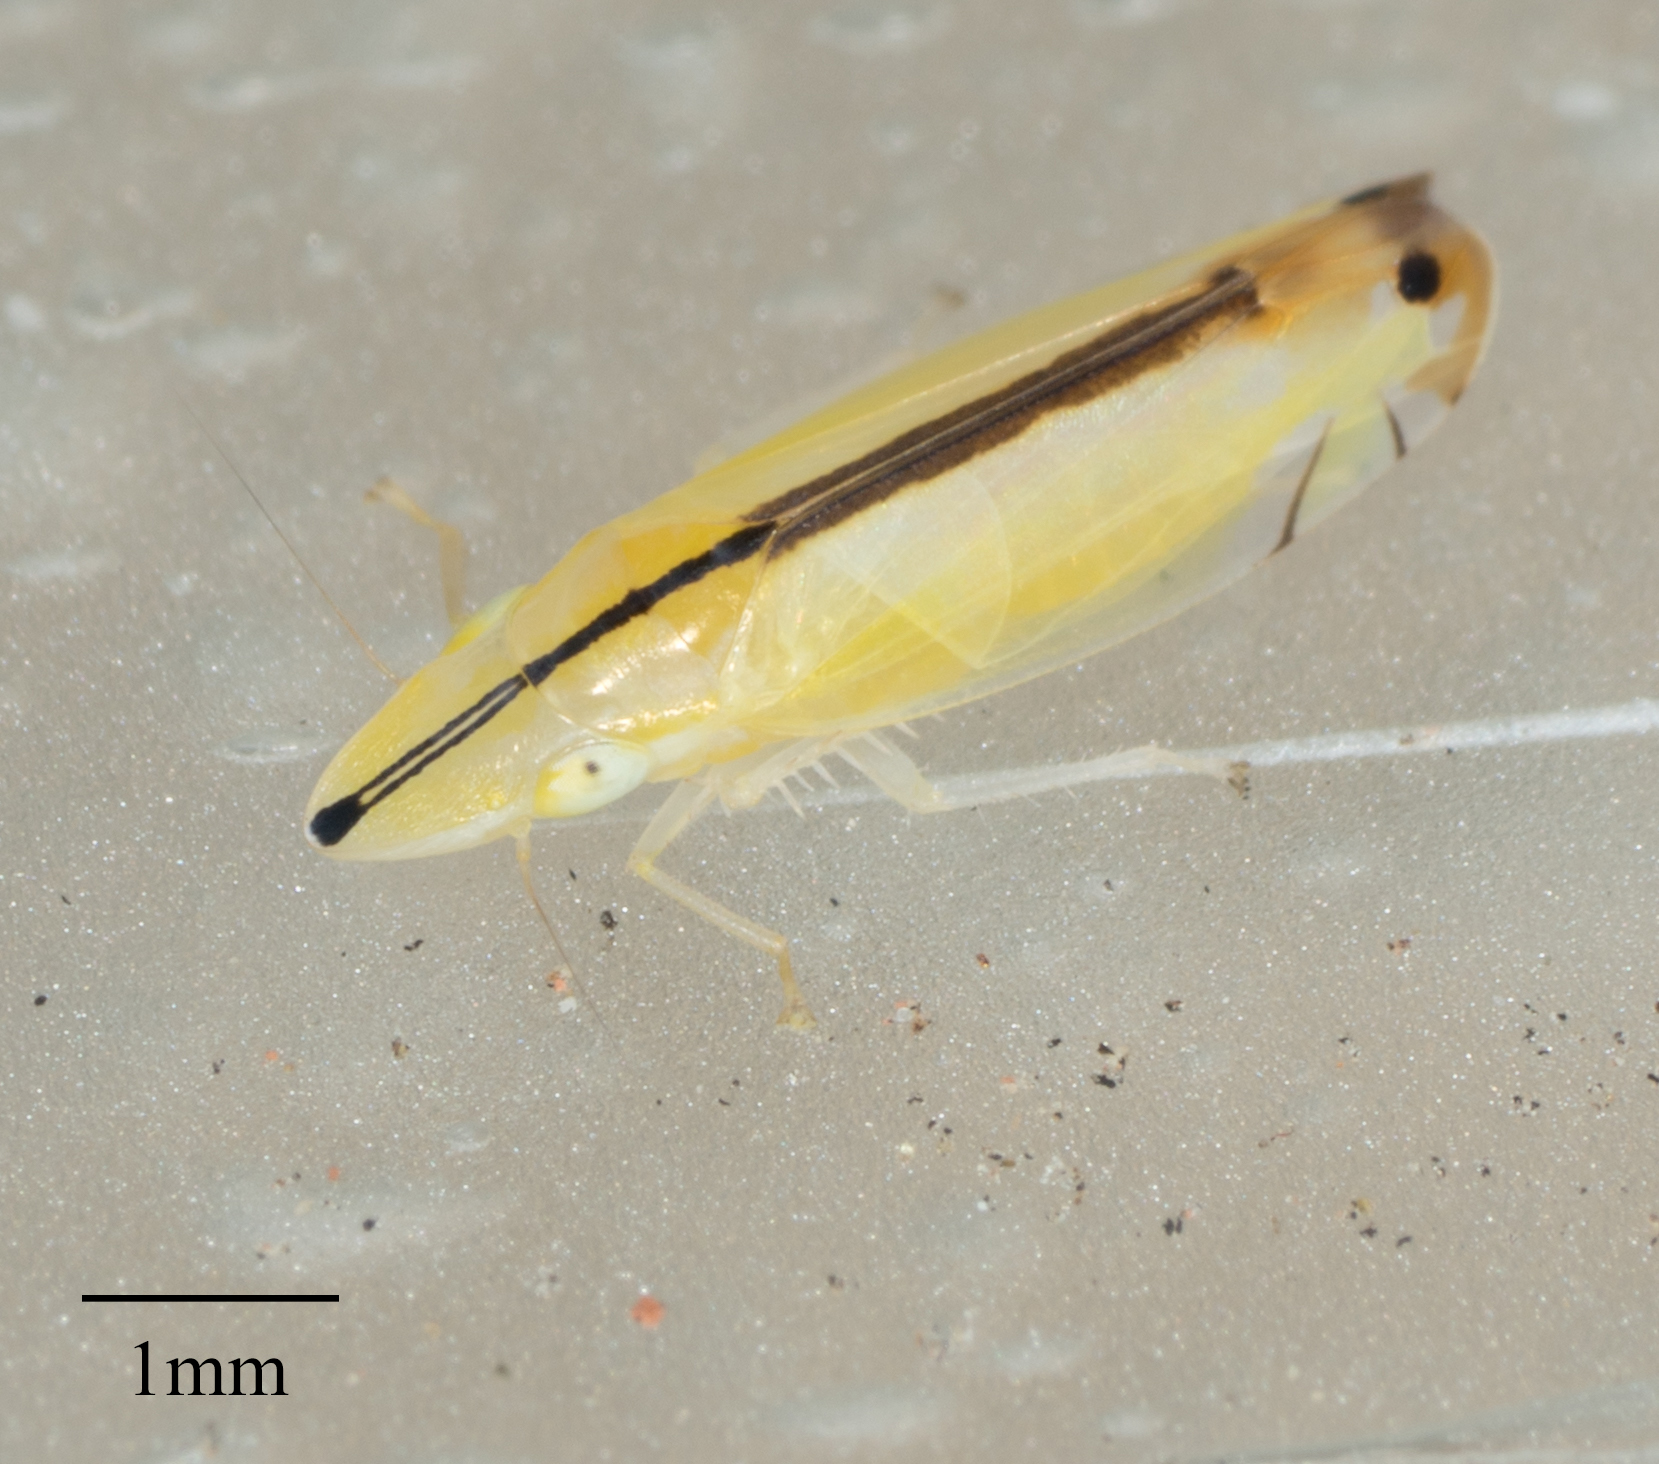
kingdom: Animalia
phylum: Arthropoda
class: Insecta
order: Hemiptera
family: Cicadellidae
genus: Sophonia
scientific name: Sophonia orientalis
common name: Two-spotted leafhopper
